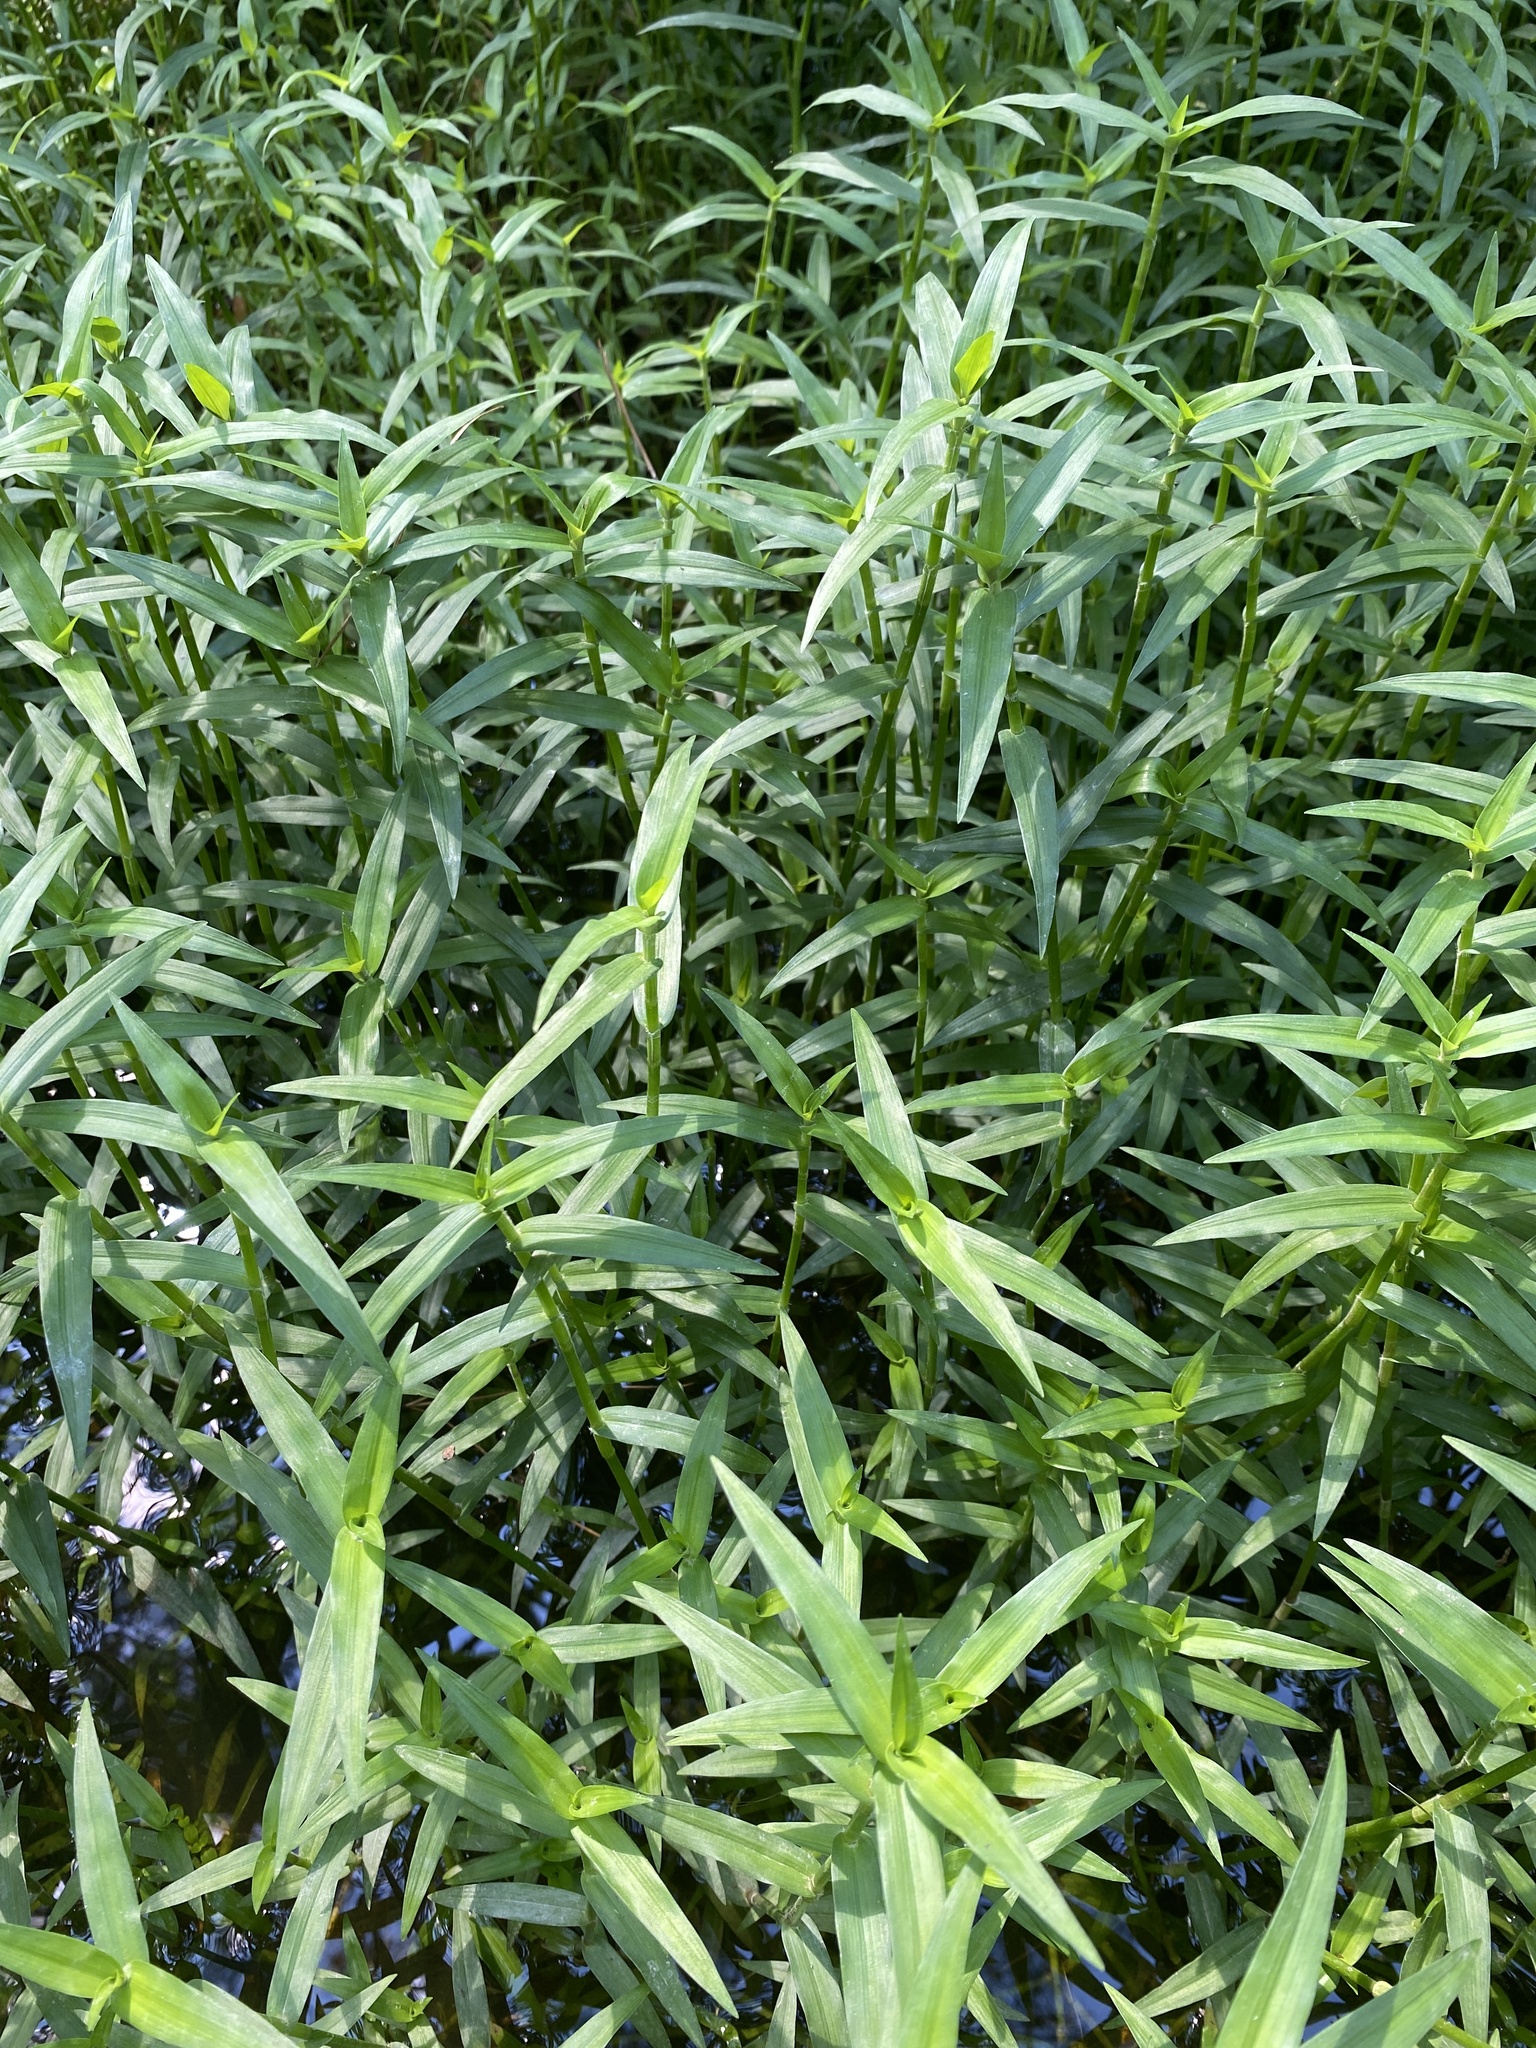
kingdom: Plantae
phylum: Tracheophyta
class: Liliopsida
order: Commelinales
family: Commelinaceae
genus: Murdannia
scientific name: Murdannia keisak
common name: Wartremoving herb
